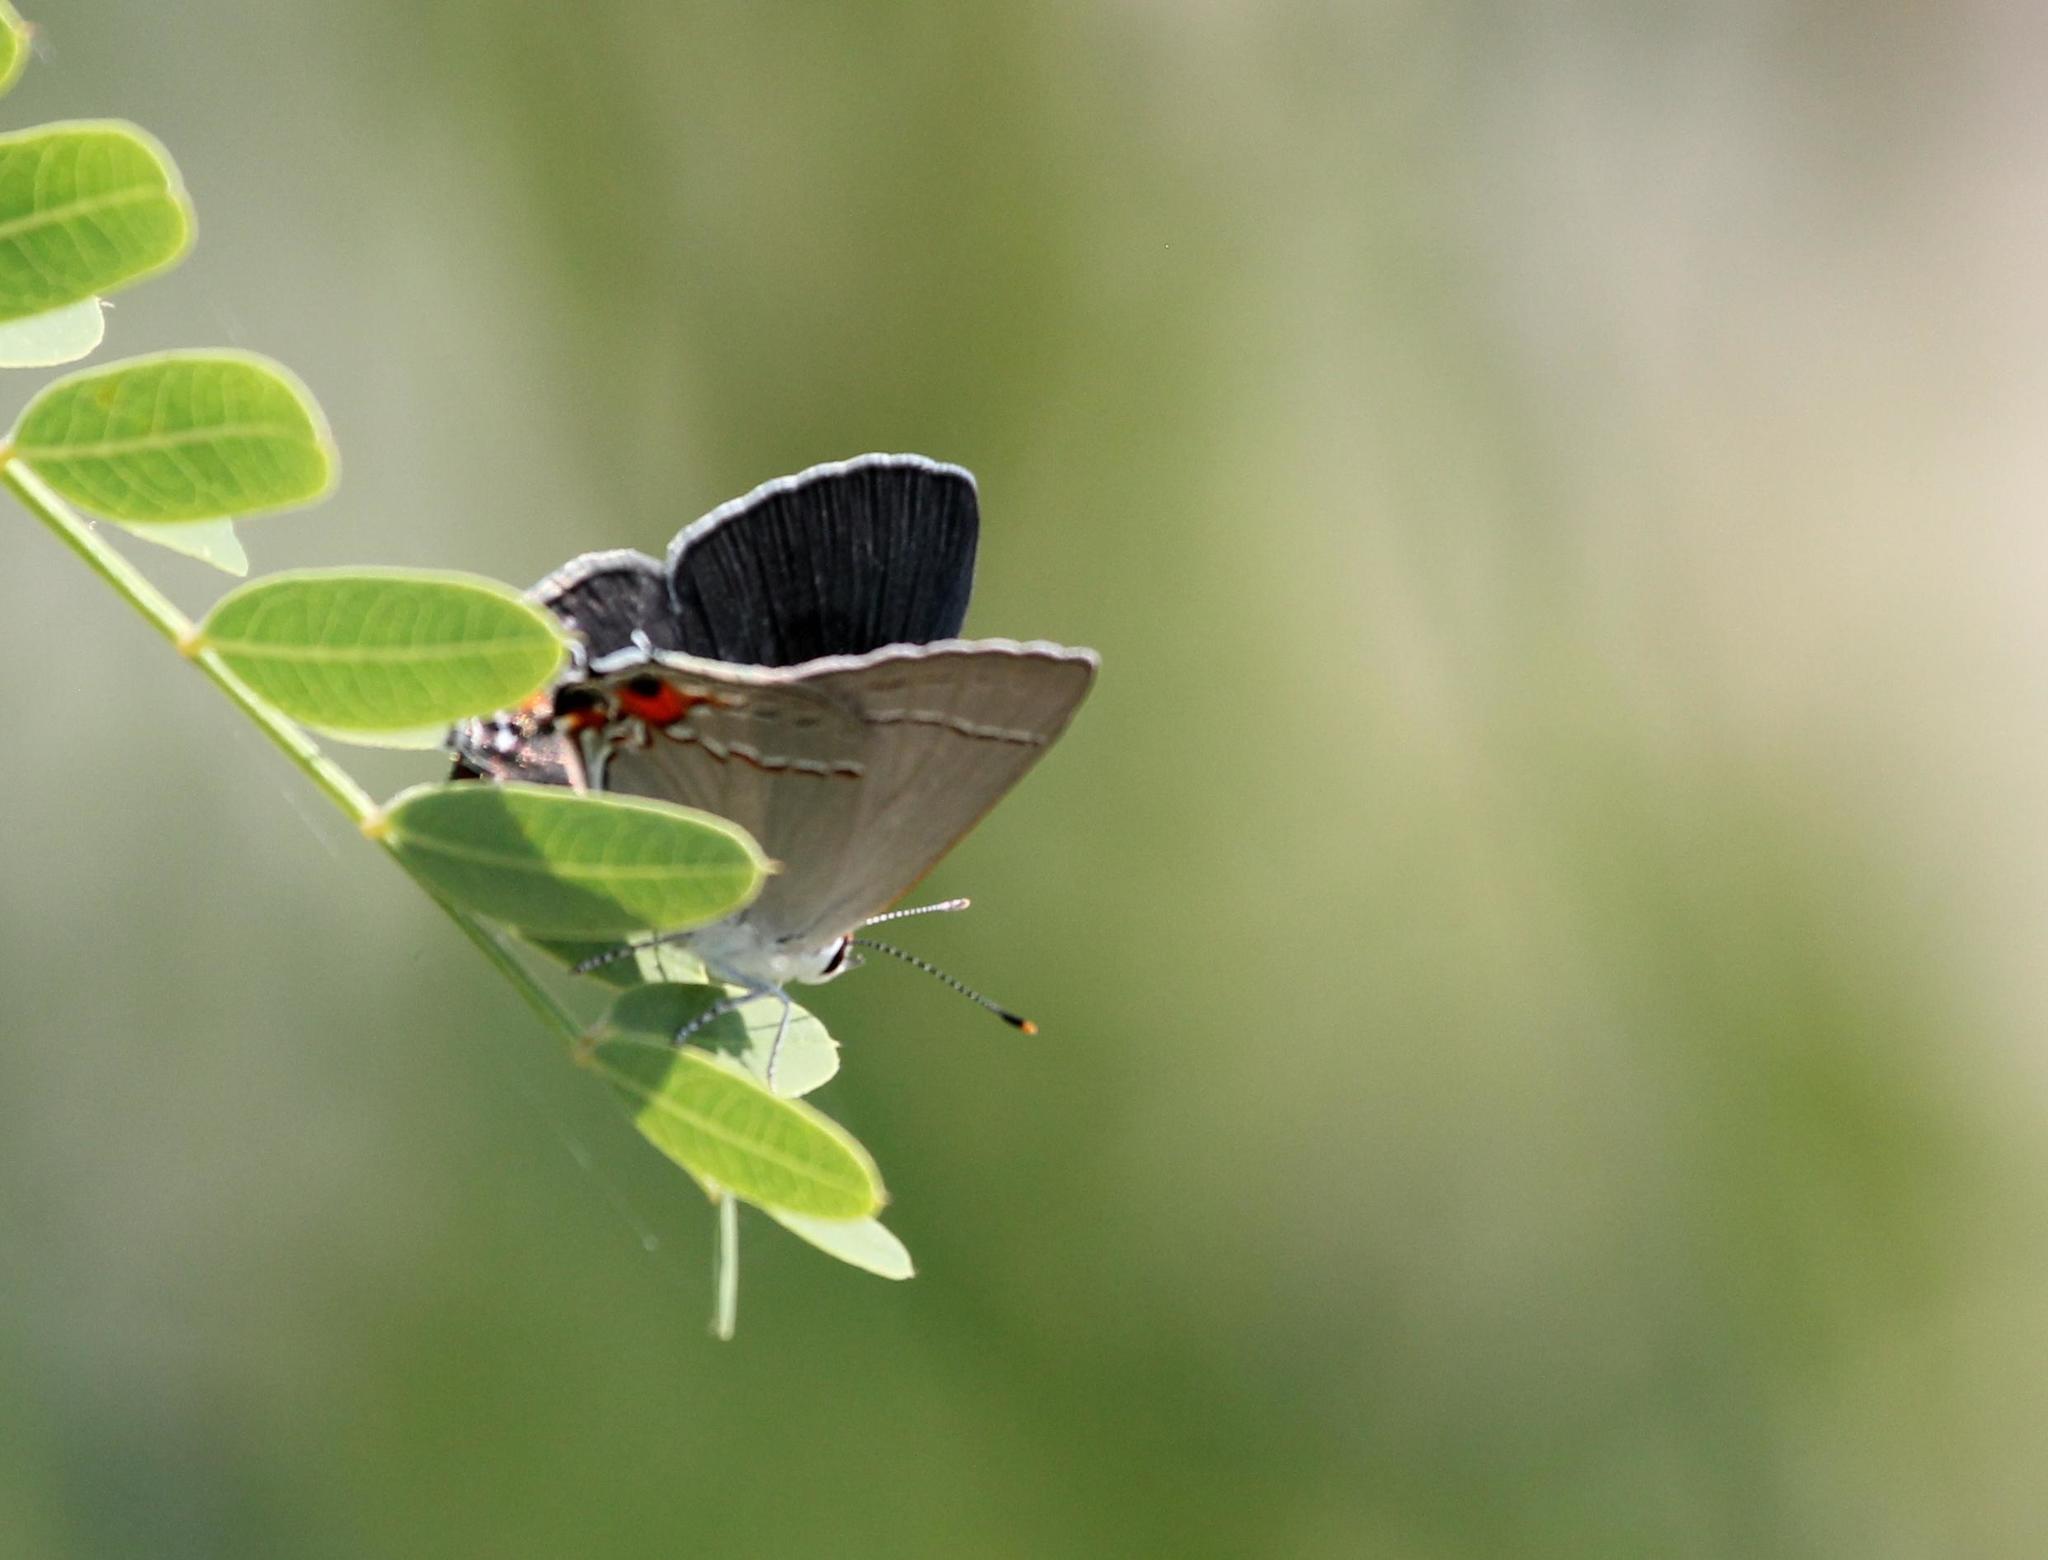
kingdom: Animalia
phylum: Arthropoda
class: Insecta
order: Lepidoptera
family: Lycaenidae
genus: Strymon
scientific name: Strymon melinus
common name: Gray hairstreak
